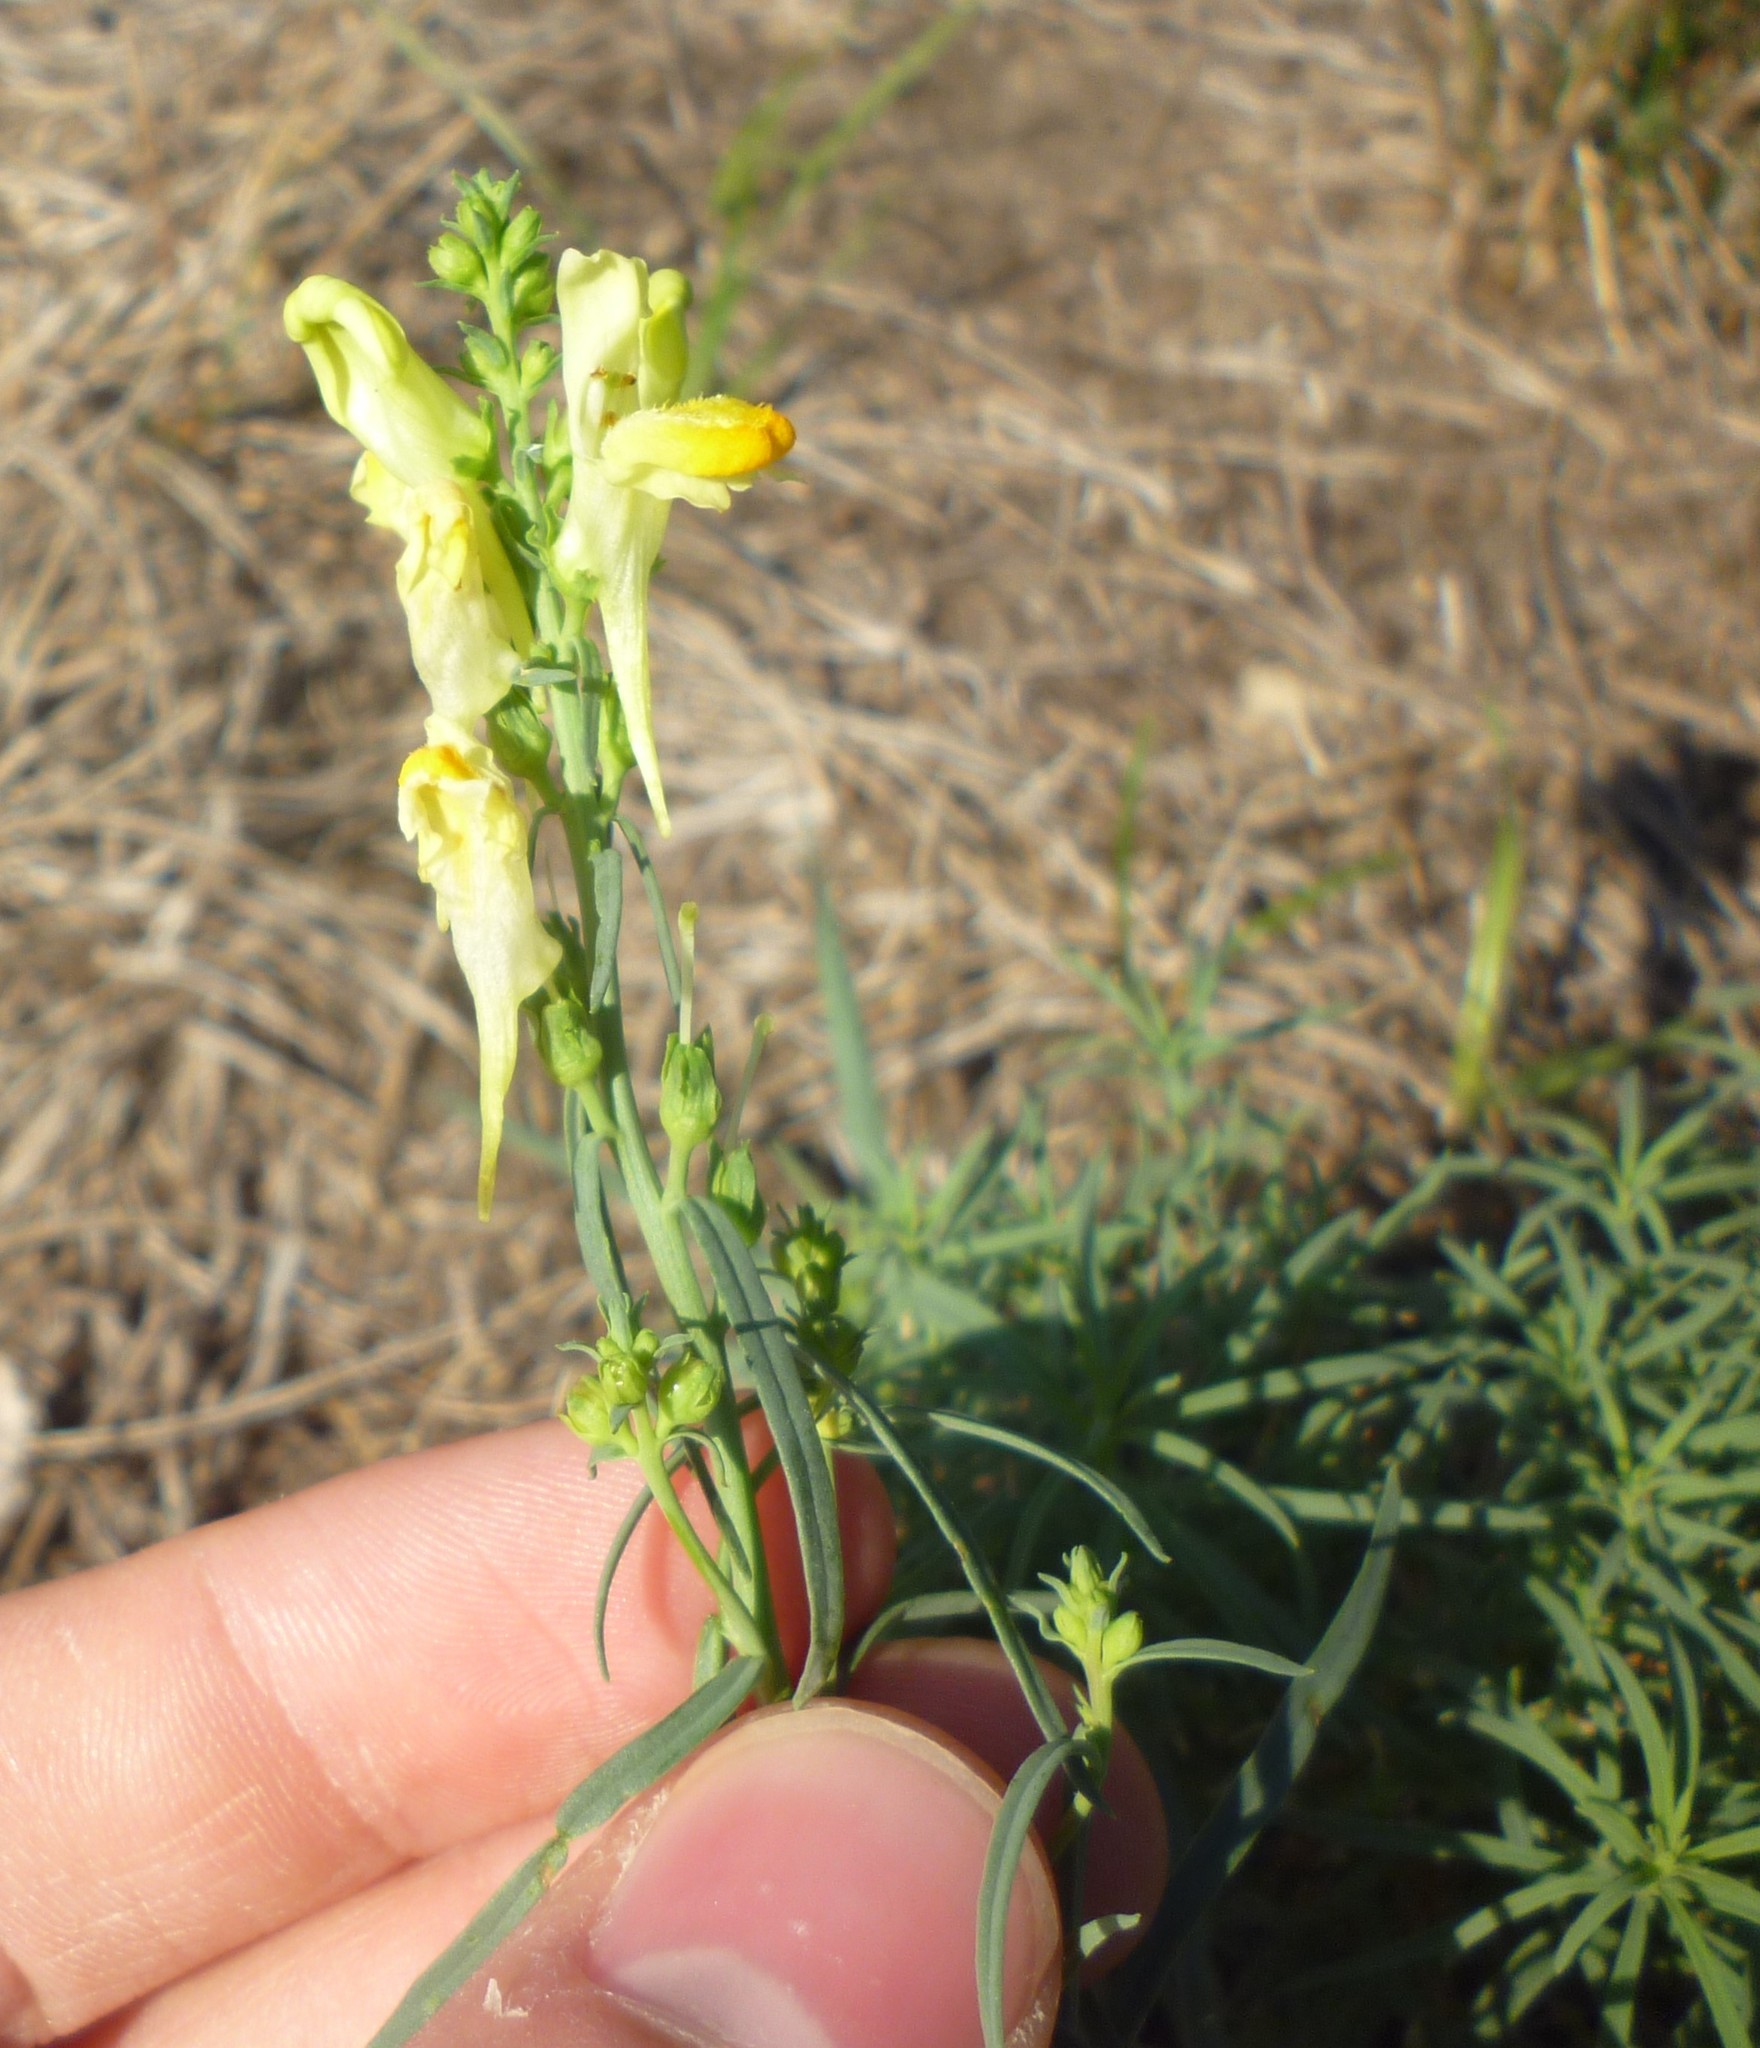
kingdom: Plantae
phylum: Tracheophyta
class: Magnoliopsida
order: Lamiales
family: Plantaginaceae
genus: Linaria
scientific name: Linaria vulgaris
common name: Butter and eggs
